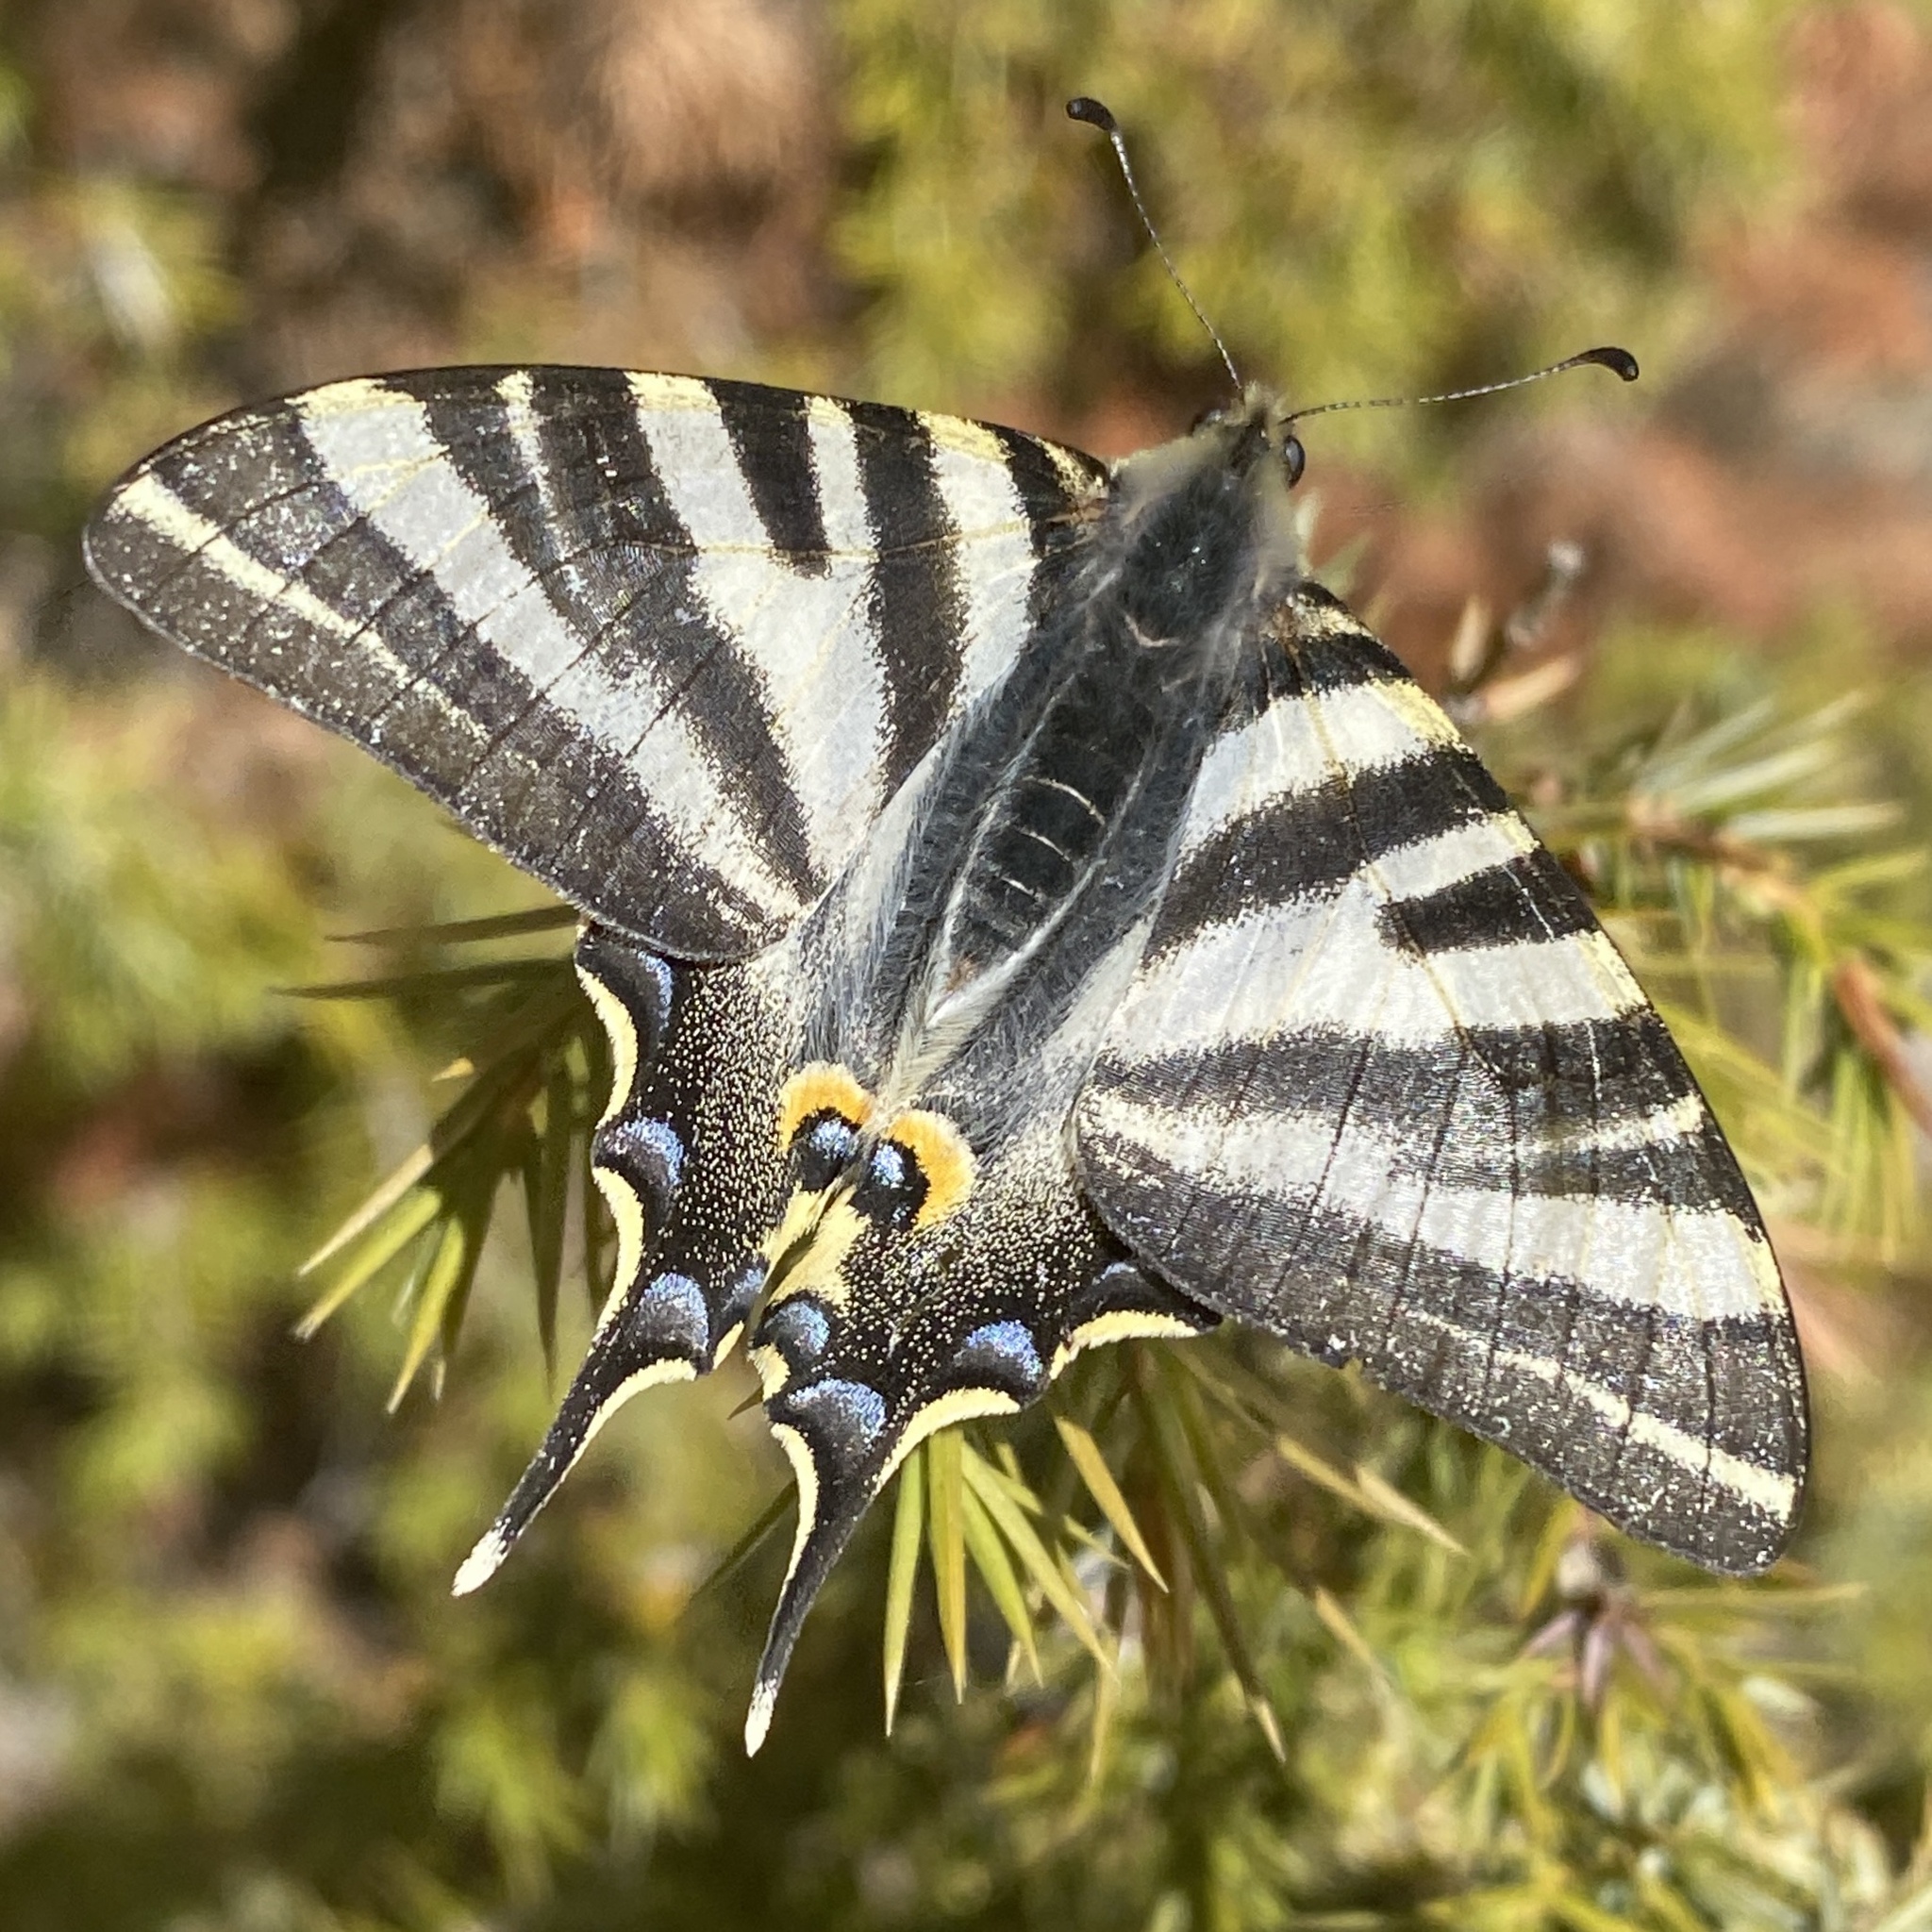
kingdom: Animalia
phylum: Arthropoda
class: Insecta
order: Lepidoptera
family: Papilionidae
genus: Iphiclides
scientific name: Iphiclides feisthamelii
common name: Iberian scarce swallowtail
